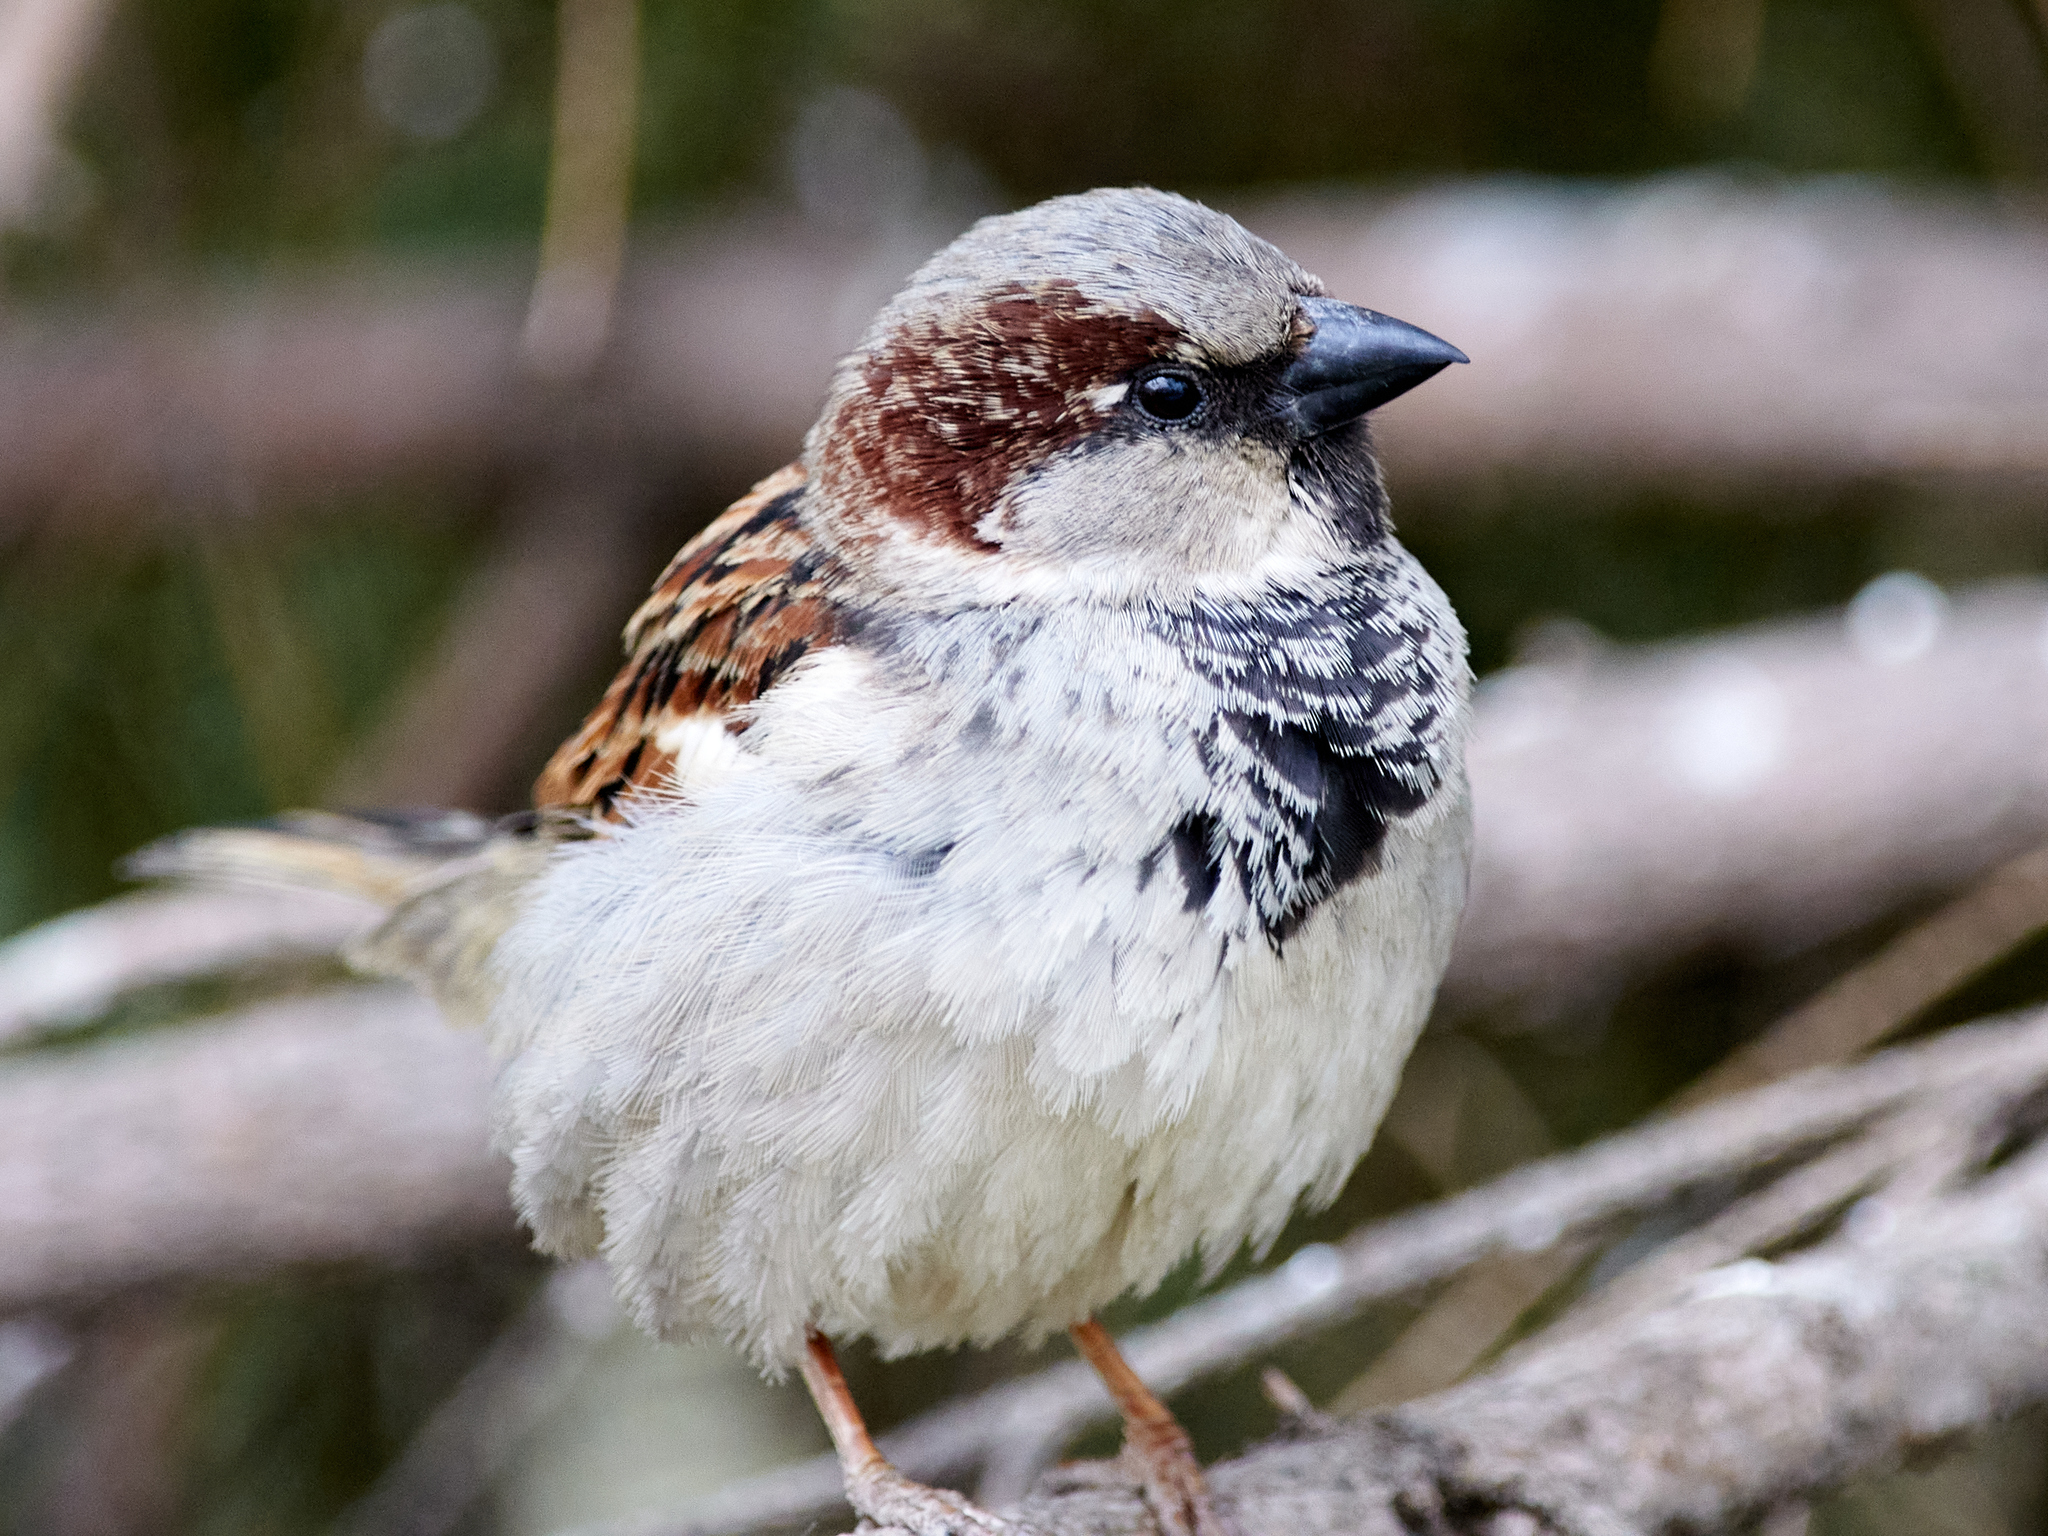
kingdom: Animalia
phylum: Chordata
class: Aves
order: Passeriformes
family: Passeridae
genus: Passer
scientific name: Passer domesticus
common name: House sparrow
